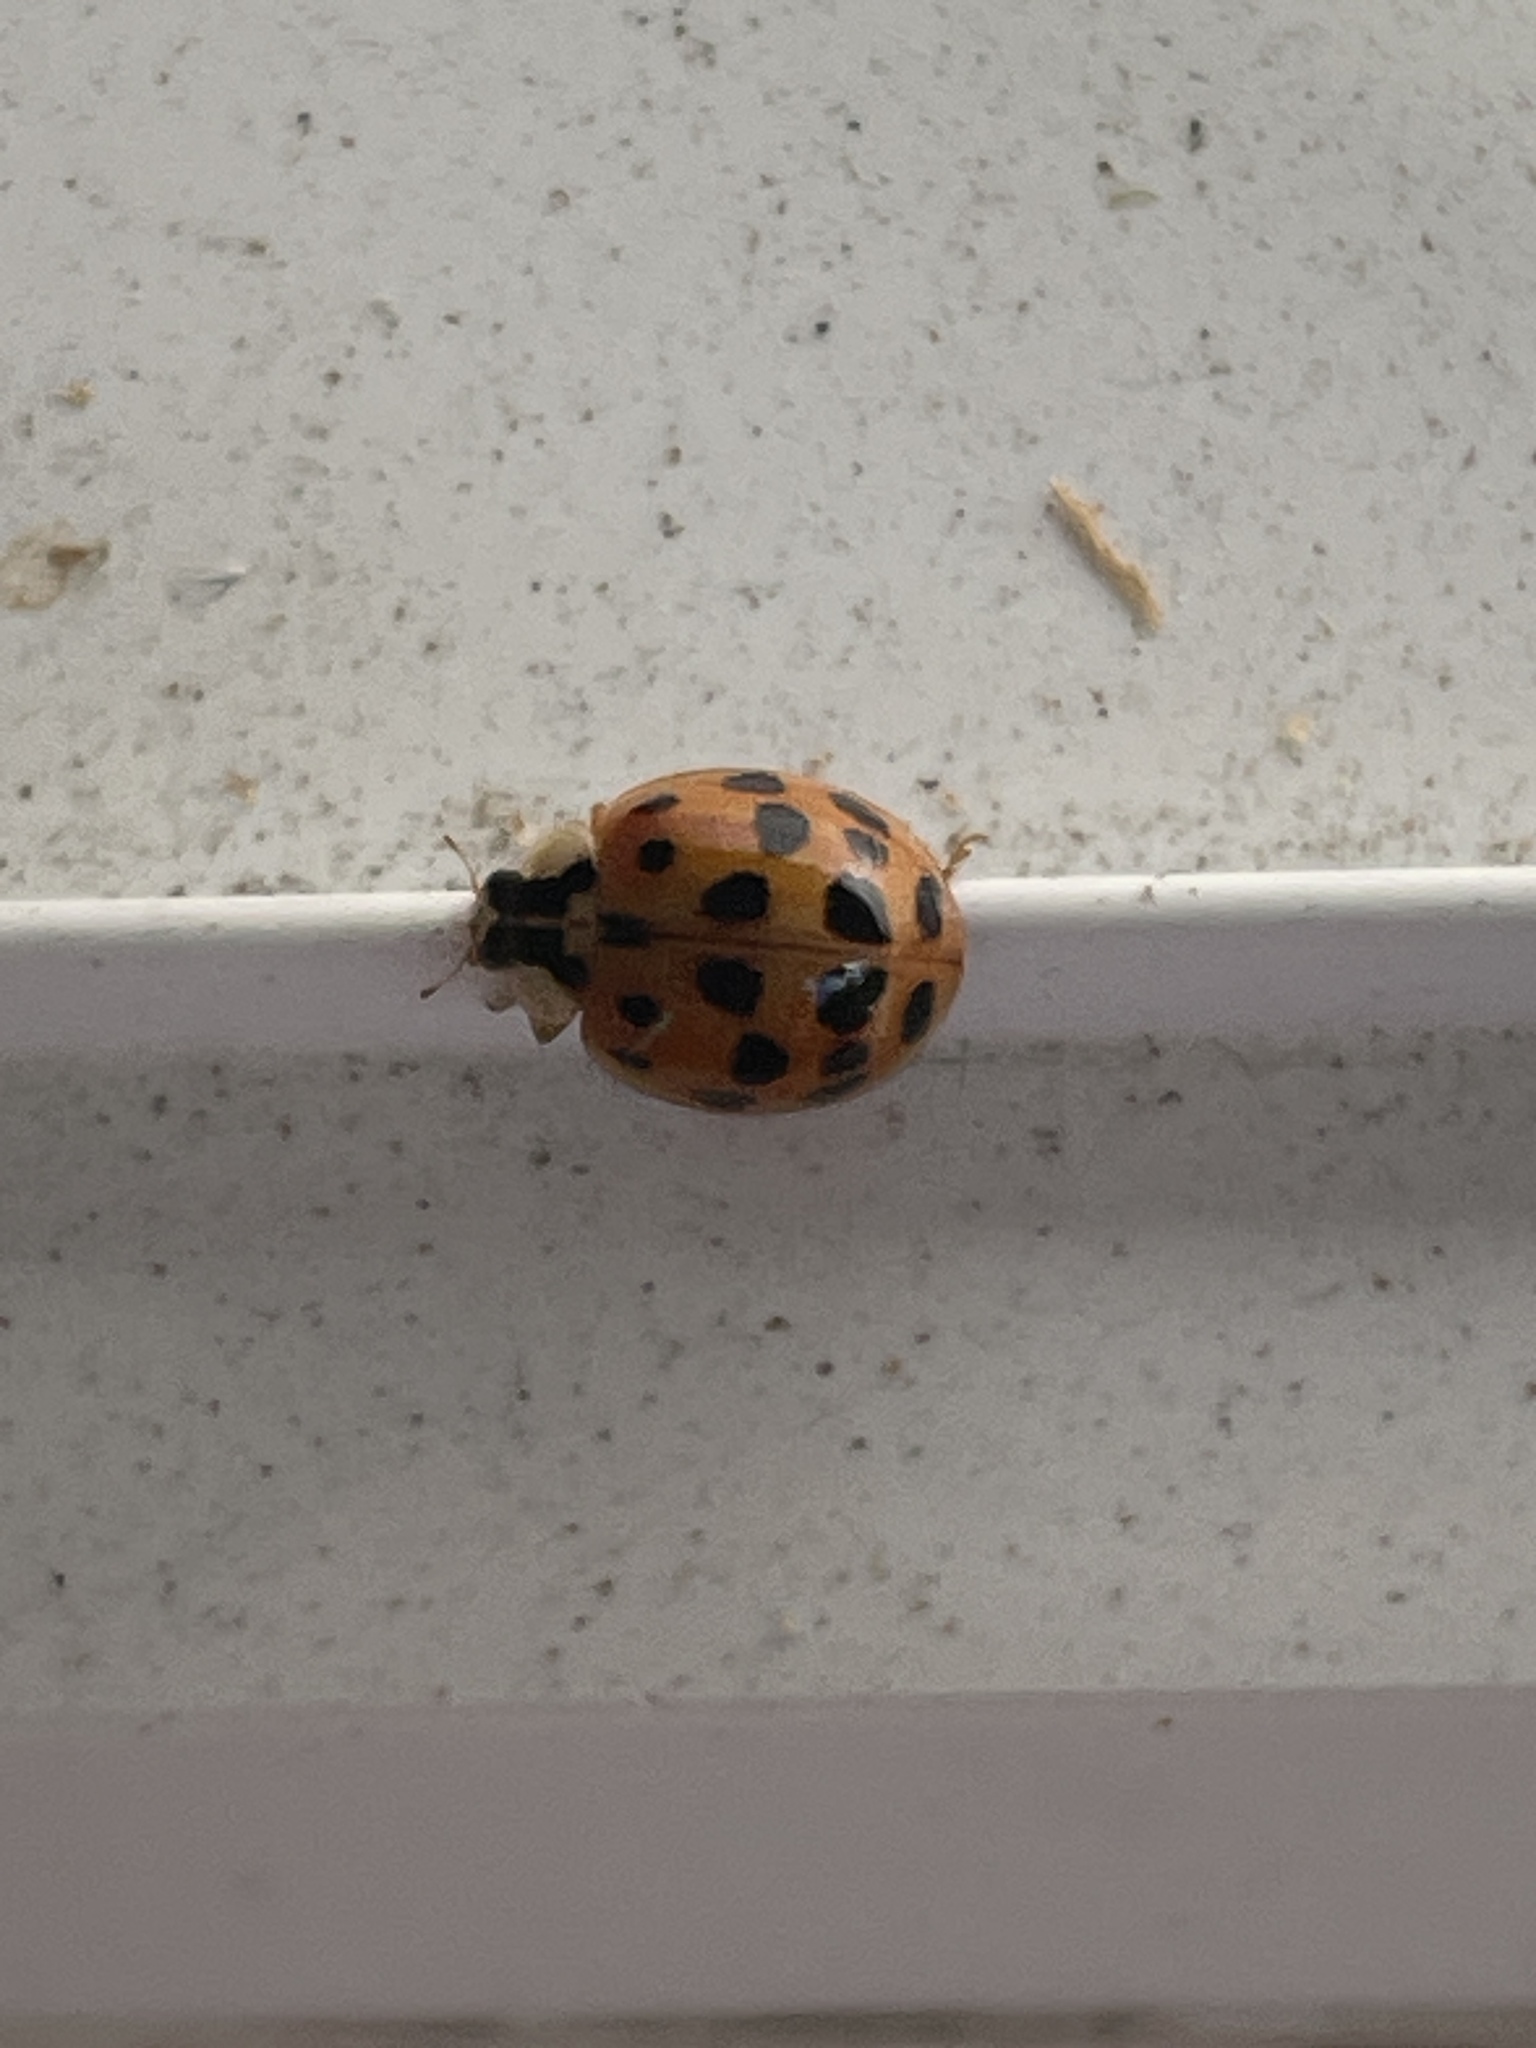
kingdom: Animalia
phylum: Arthropoda
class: Insecta
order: Coleoptera
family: Coccinellidae
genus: Harmonia
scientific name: Harmonia axyridis
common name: Harlequin ladybird
